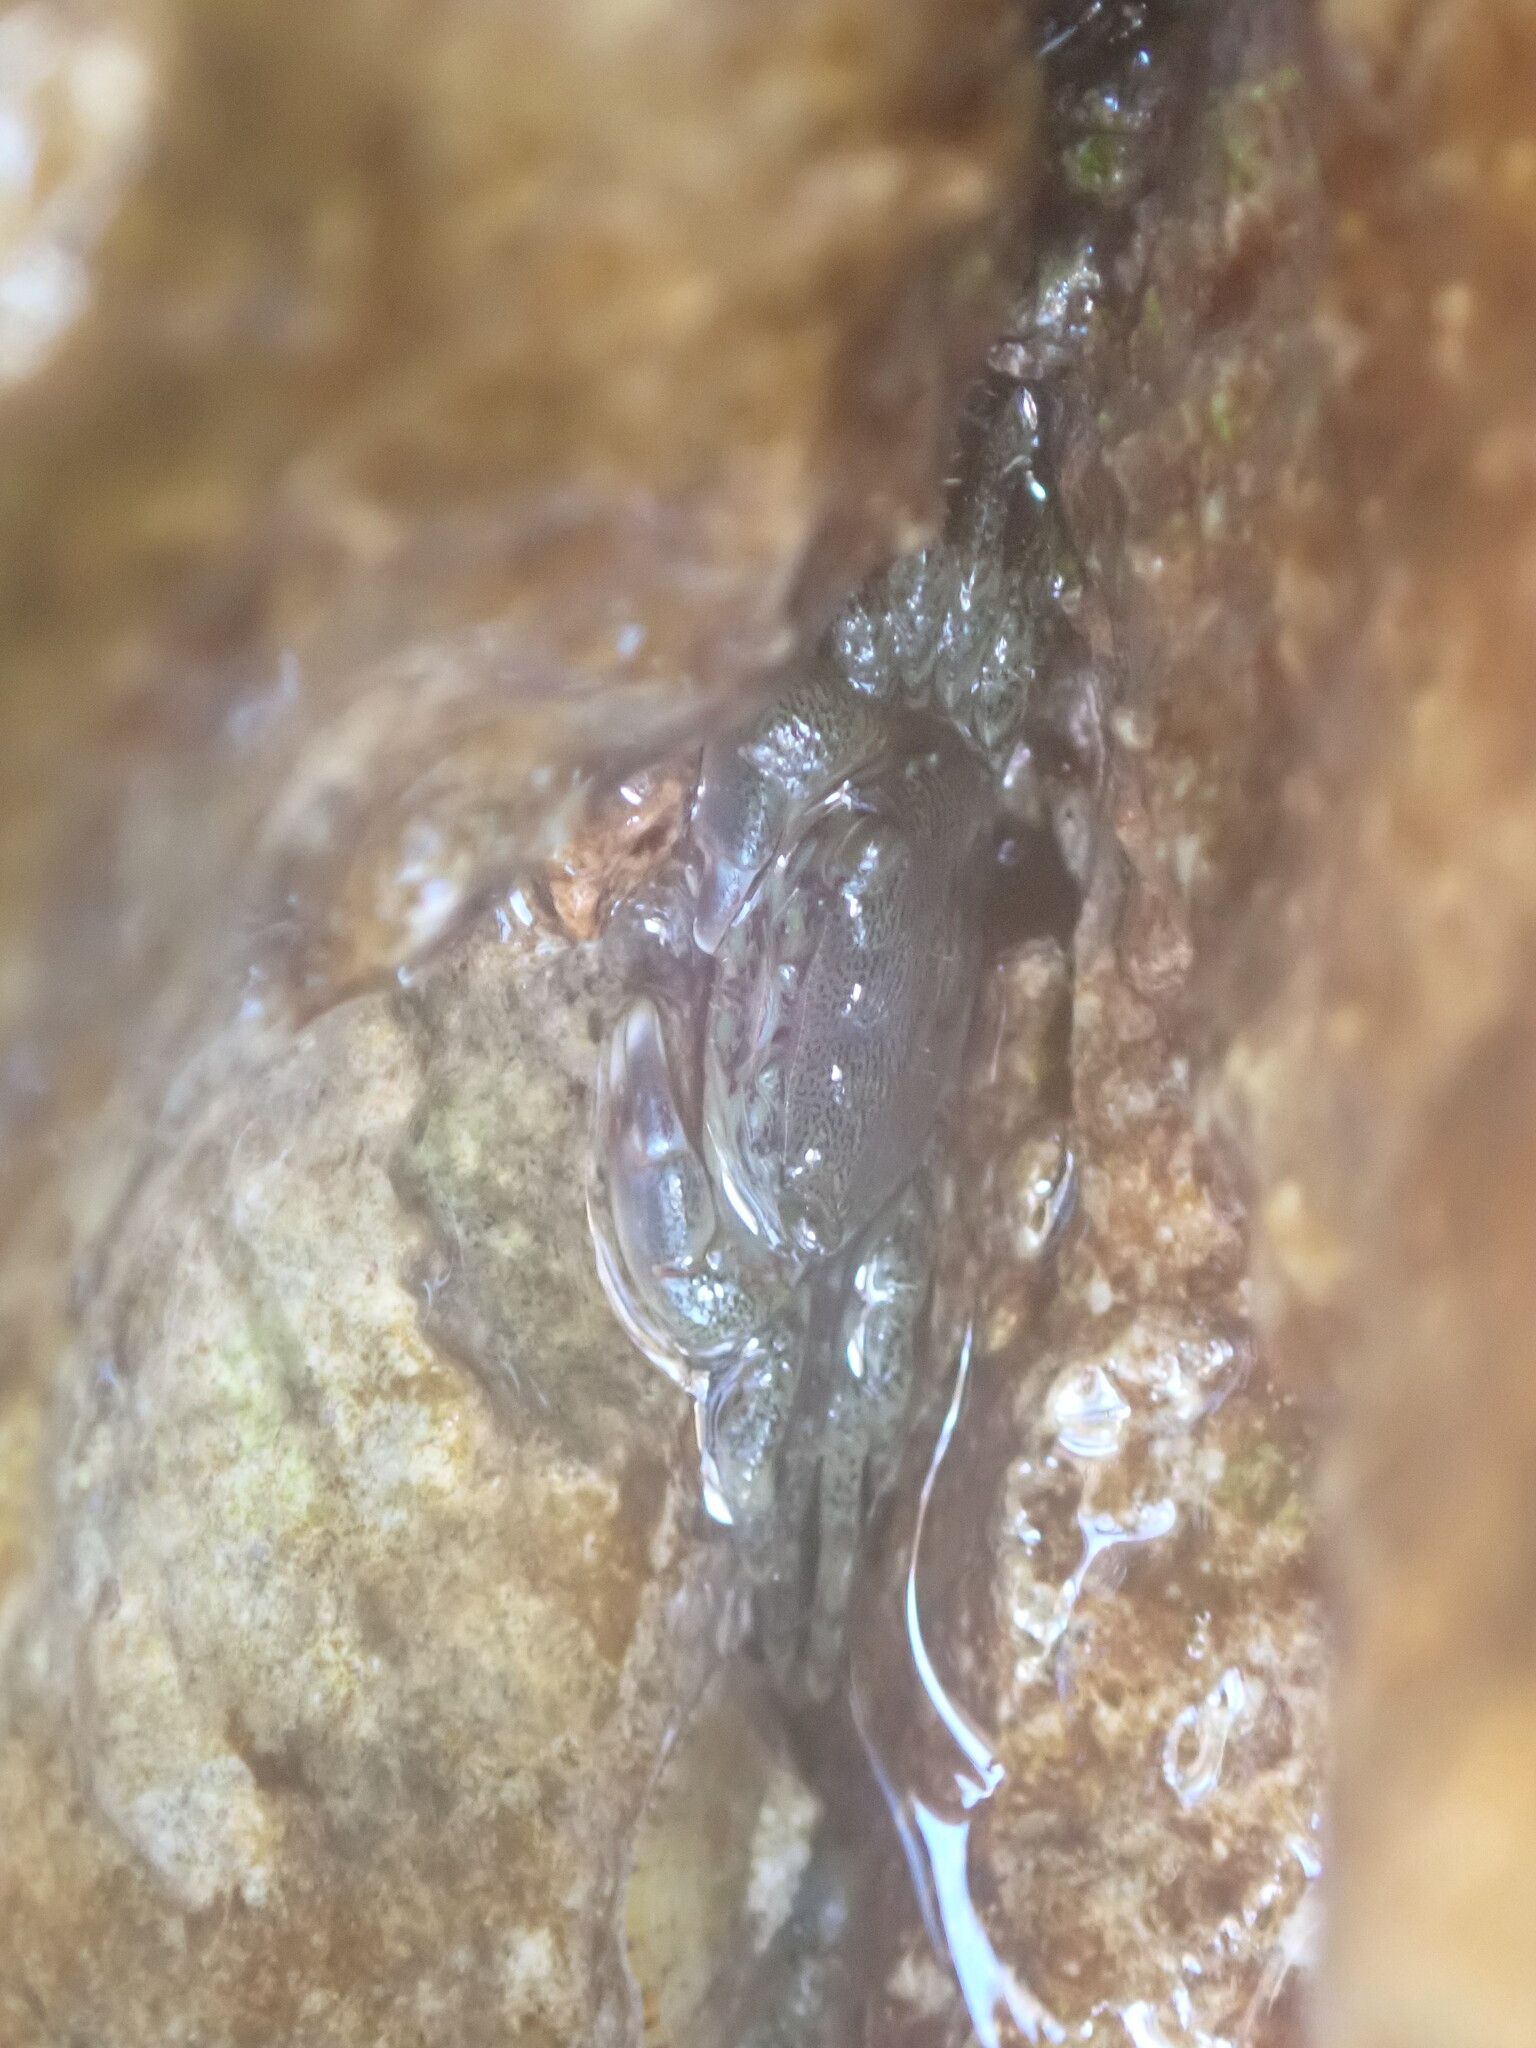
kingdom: Animalia
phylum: Arthropoda
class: Malacostraca
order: Decapoda
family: Grapsidae
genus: Pachygrapsus
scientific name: Pachygrapsus marmoratus
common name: Marbled rock crab
